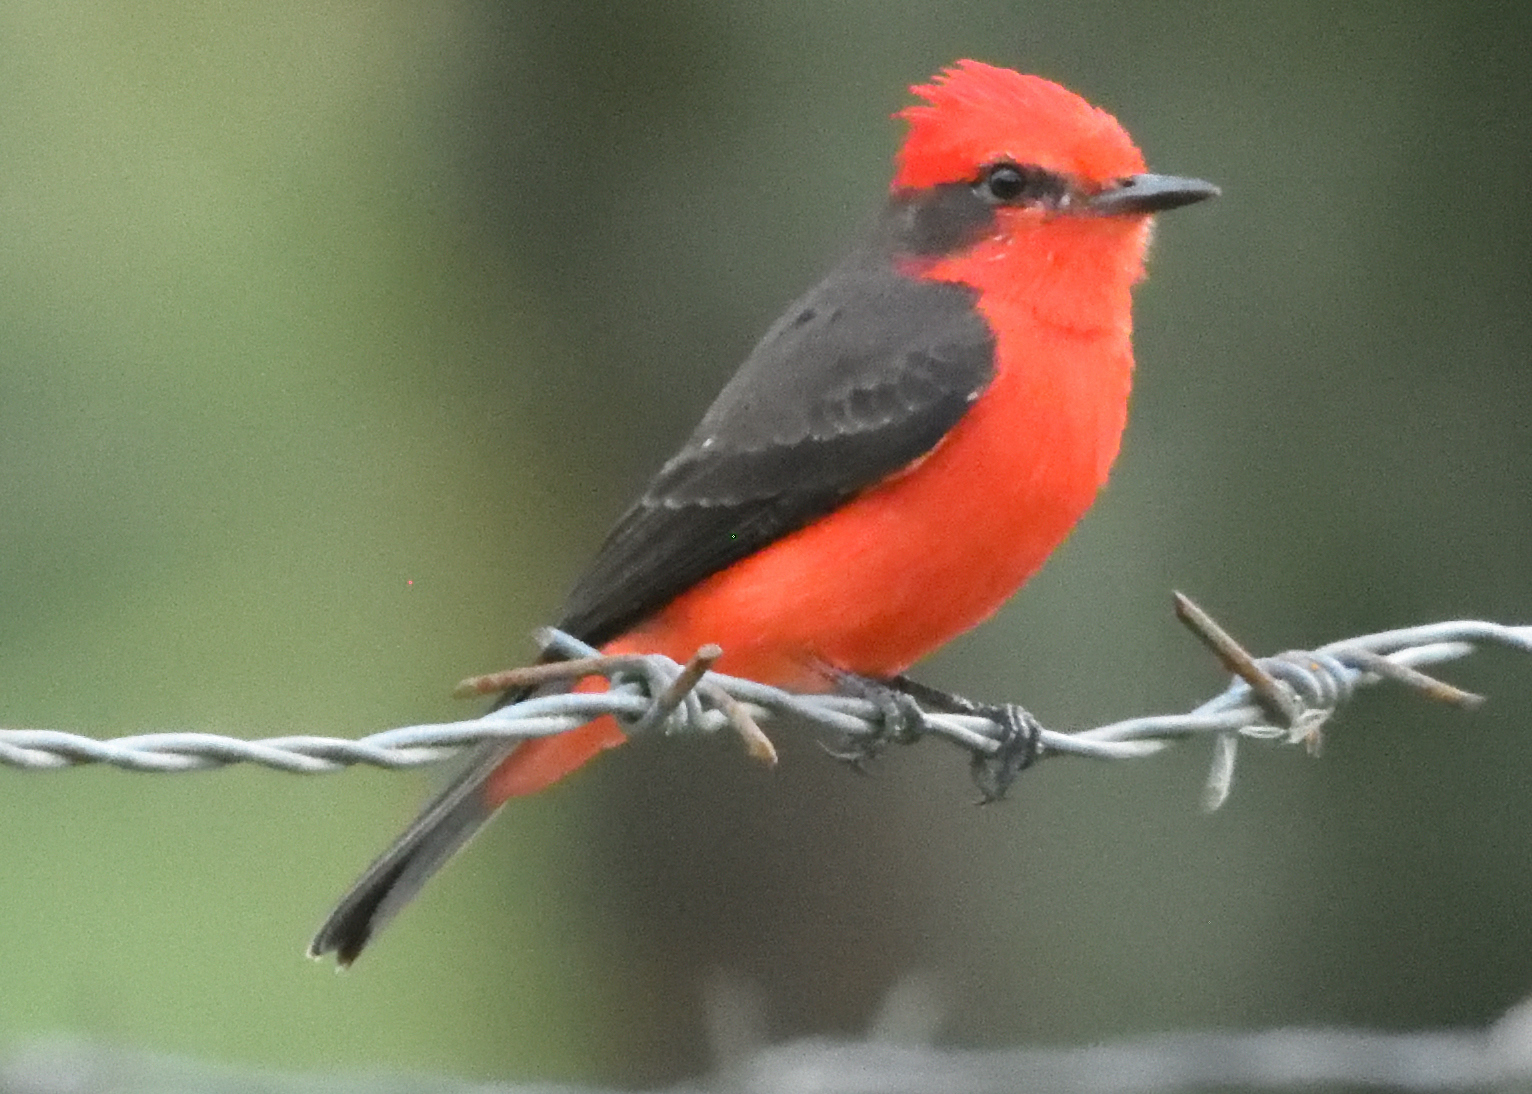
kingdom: Animalia
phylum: Chordata
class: Aves
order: Passeriformes
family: Tyrannidae
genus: Pyrocephalus
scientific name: Pyrocephalus rubinus
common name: Vermilion flycatcher
